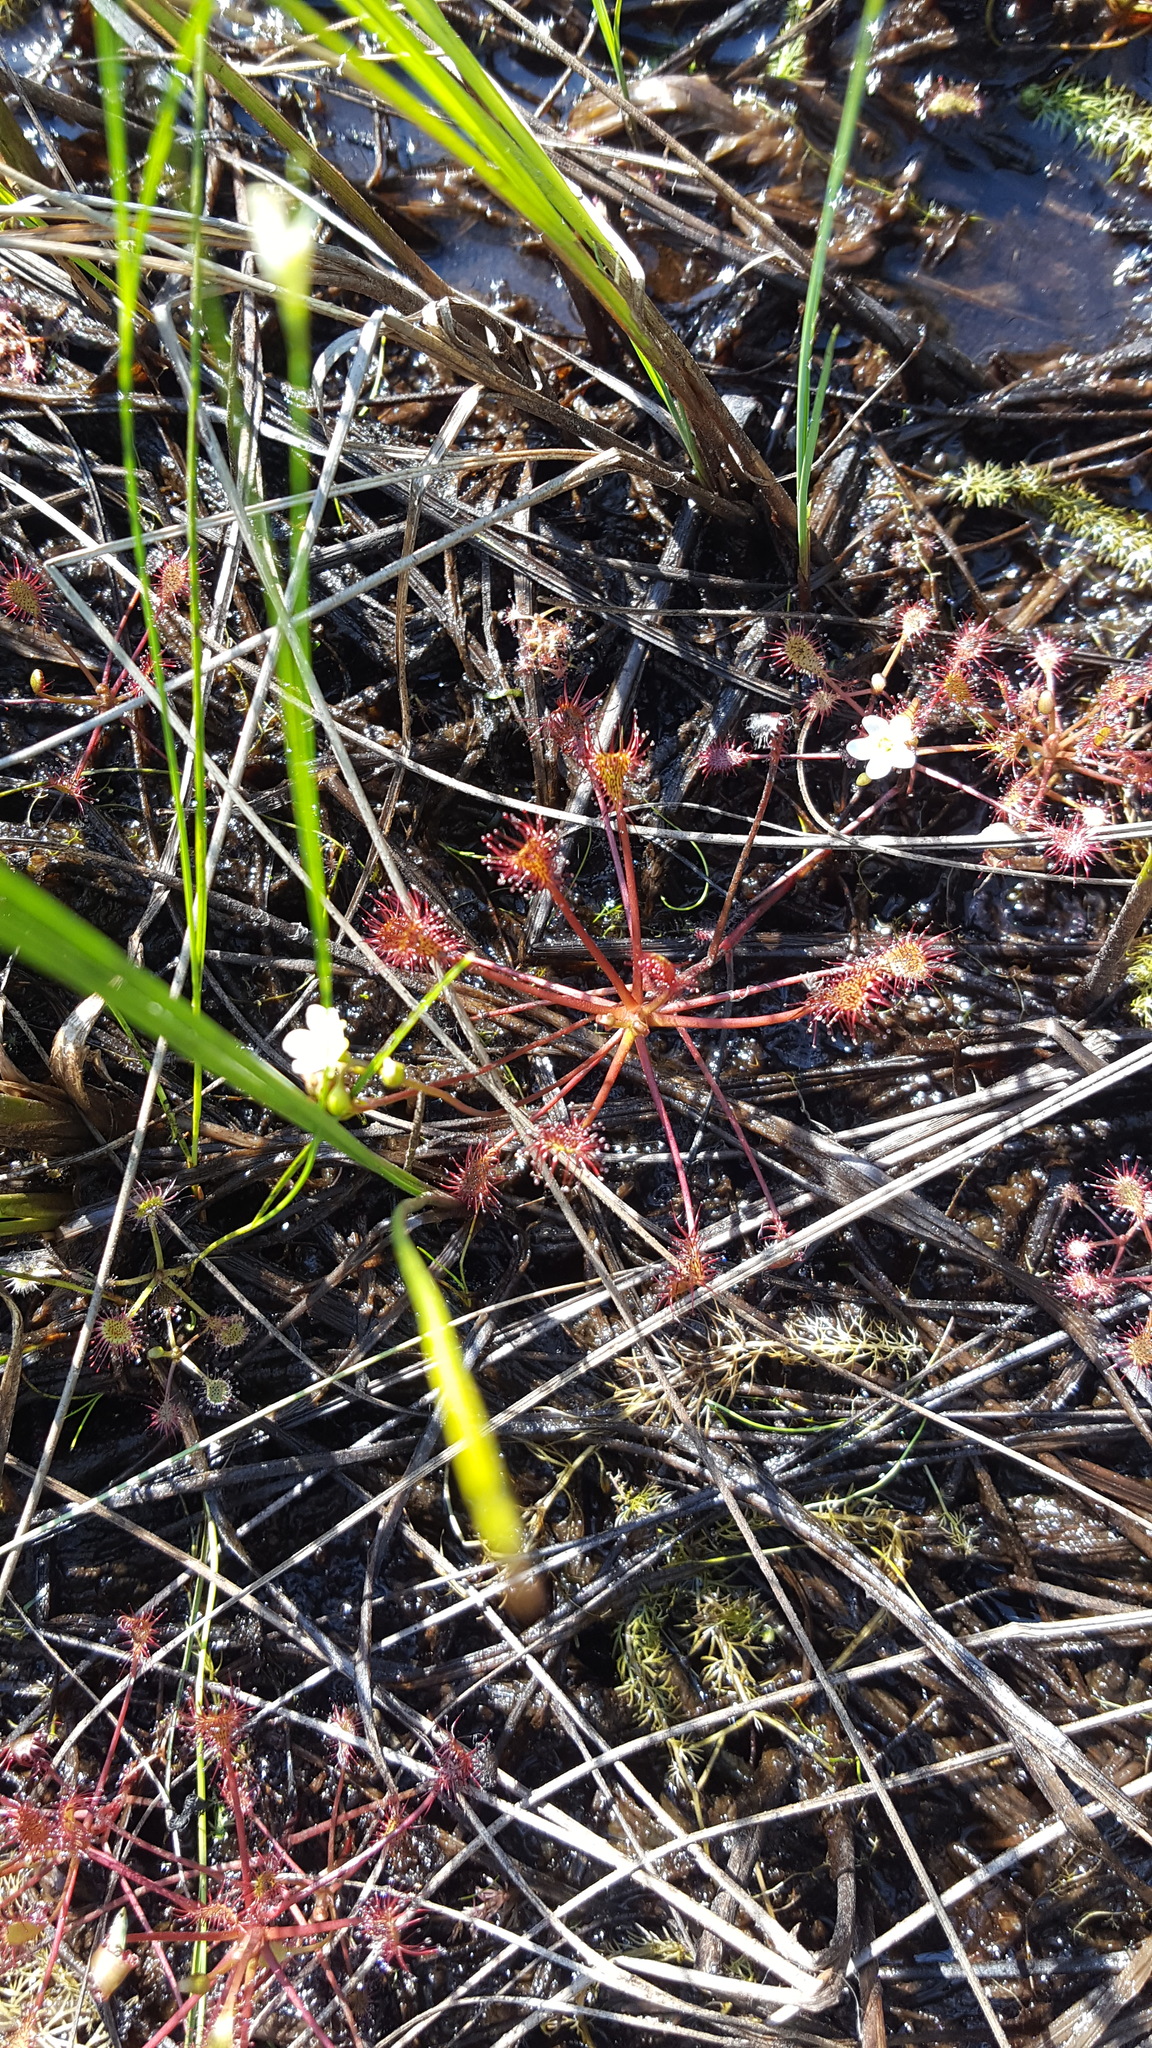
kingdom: Plantae
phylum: Tracheophyta
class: Magnoliopsida
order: Caryophyllales
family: Droseraceae
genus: Drosera
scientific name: Drosera intermedia
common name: Oblong-leaved sundew
